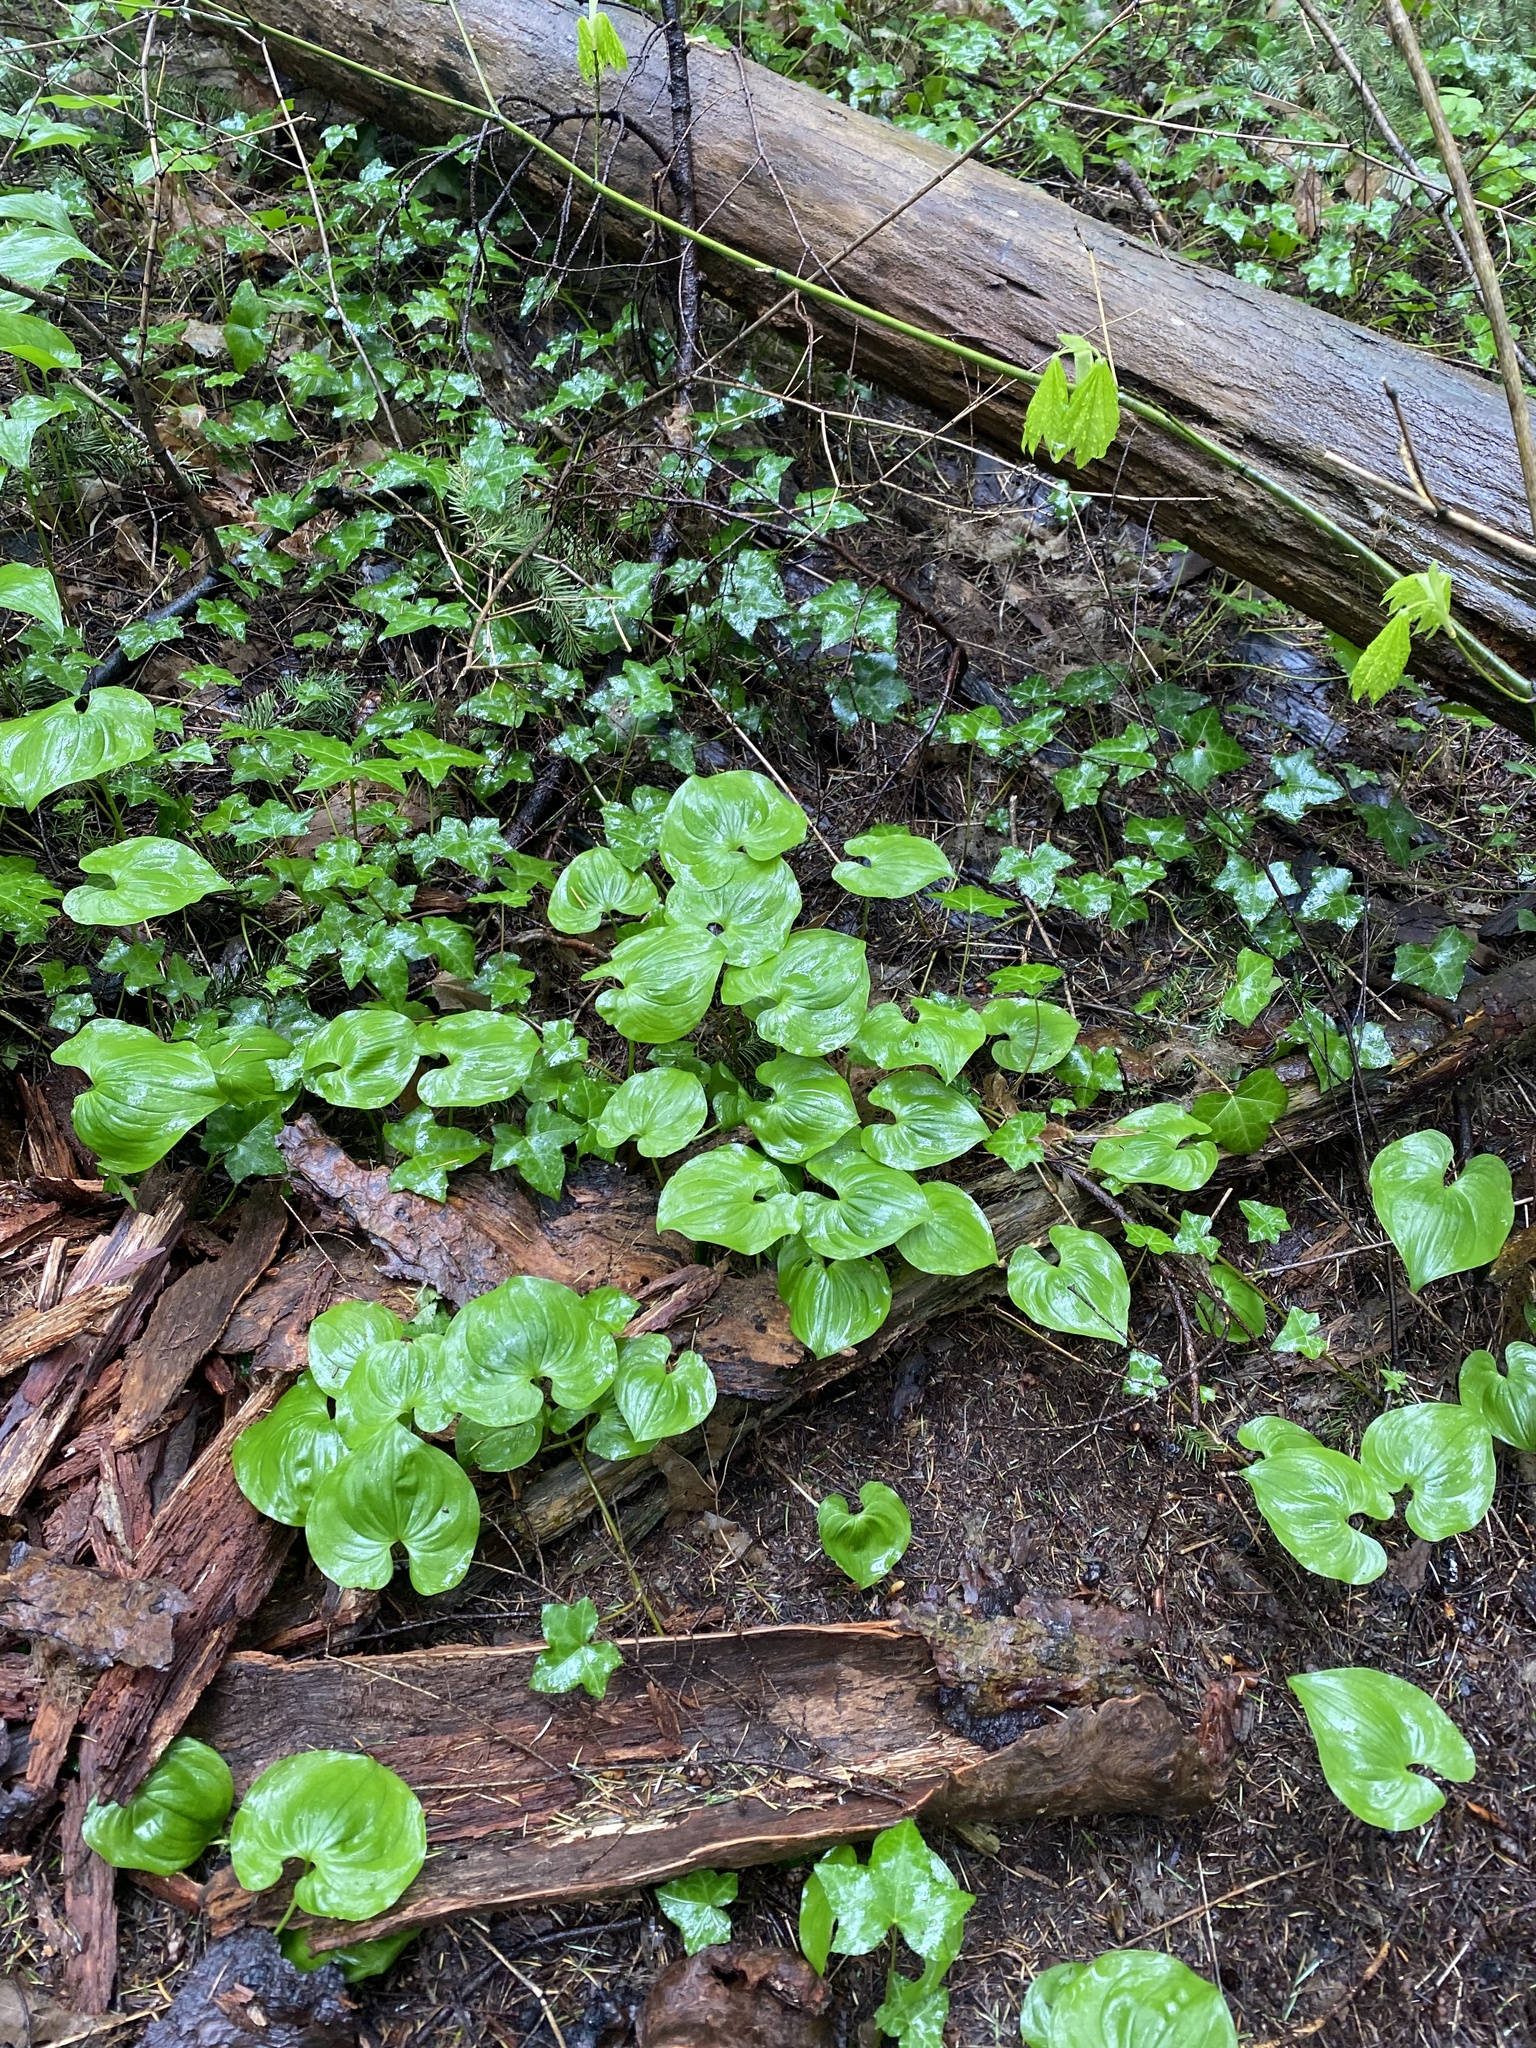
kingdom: Plantae
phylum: Tracheophyta
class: Liliopsida
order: Asparagales
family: Asparagaceae
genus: Maianthemum
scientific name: Maianthemum dilatatum
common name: False lily-of-the-valley
